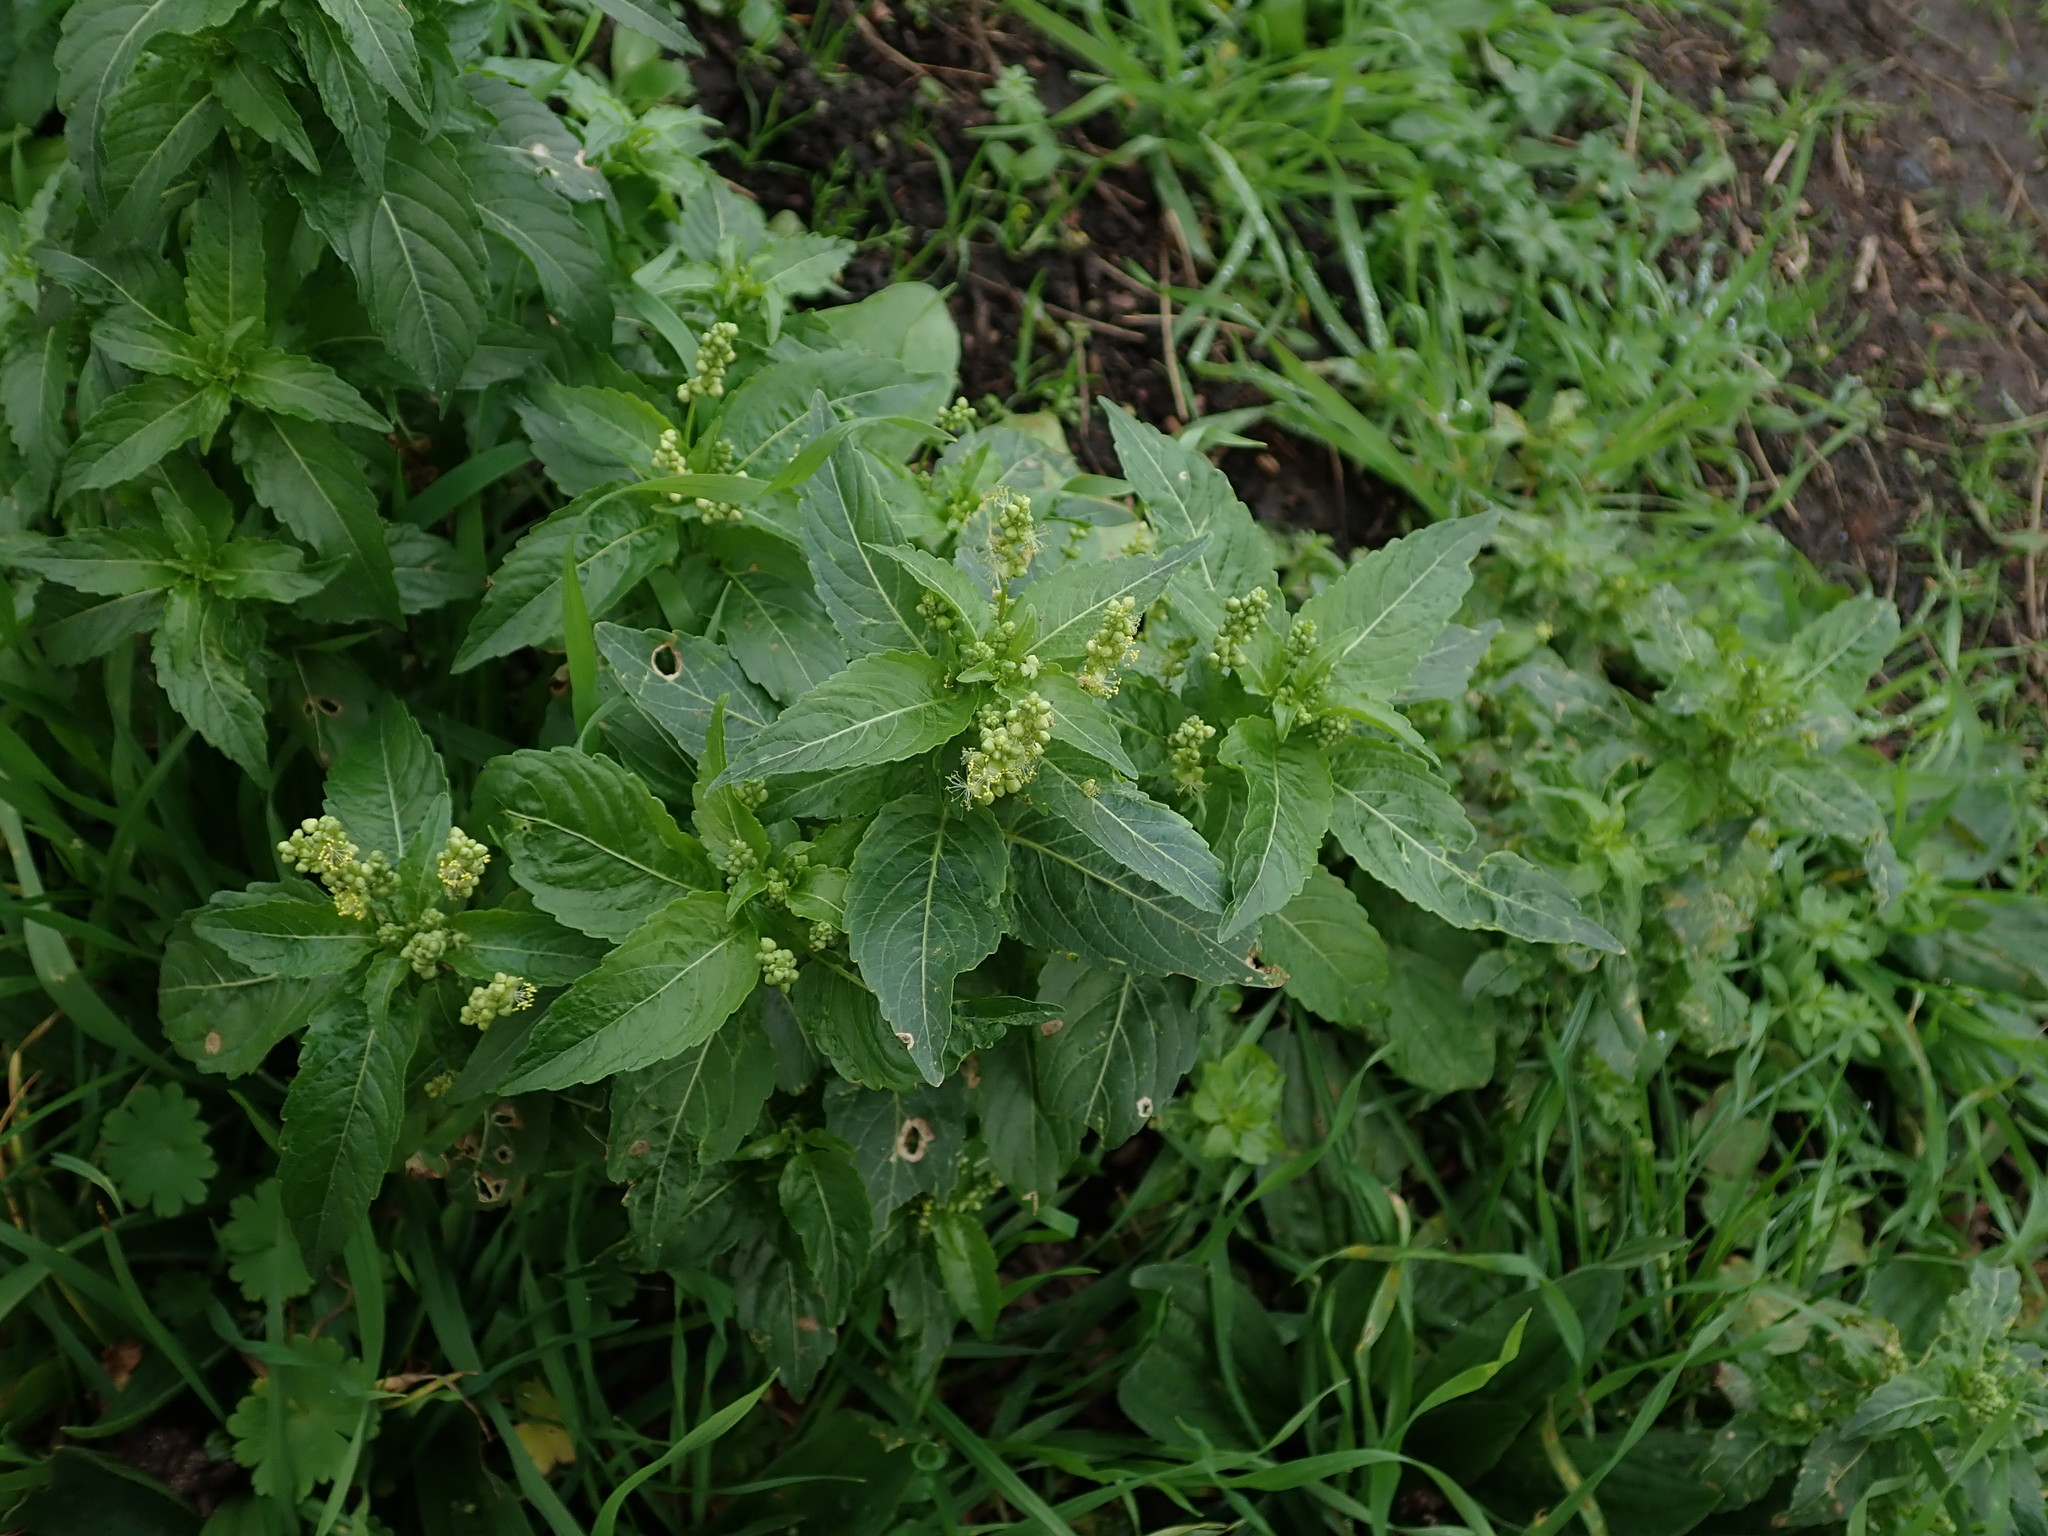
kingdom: Plantae
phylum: Tracheophyta
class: Magnoliopsida
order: Malpighiales
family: Euphorbiaceae
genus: Mercurialis
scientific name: Mercurialis annua
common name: Annual mercury
